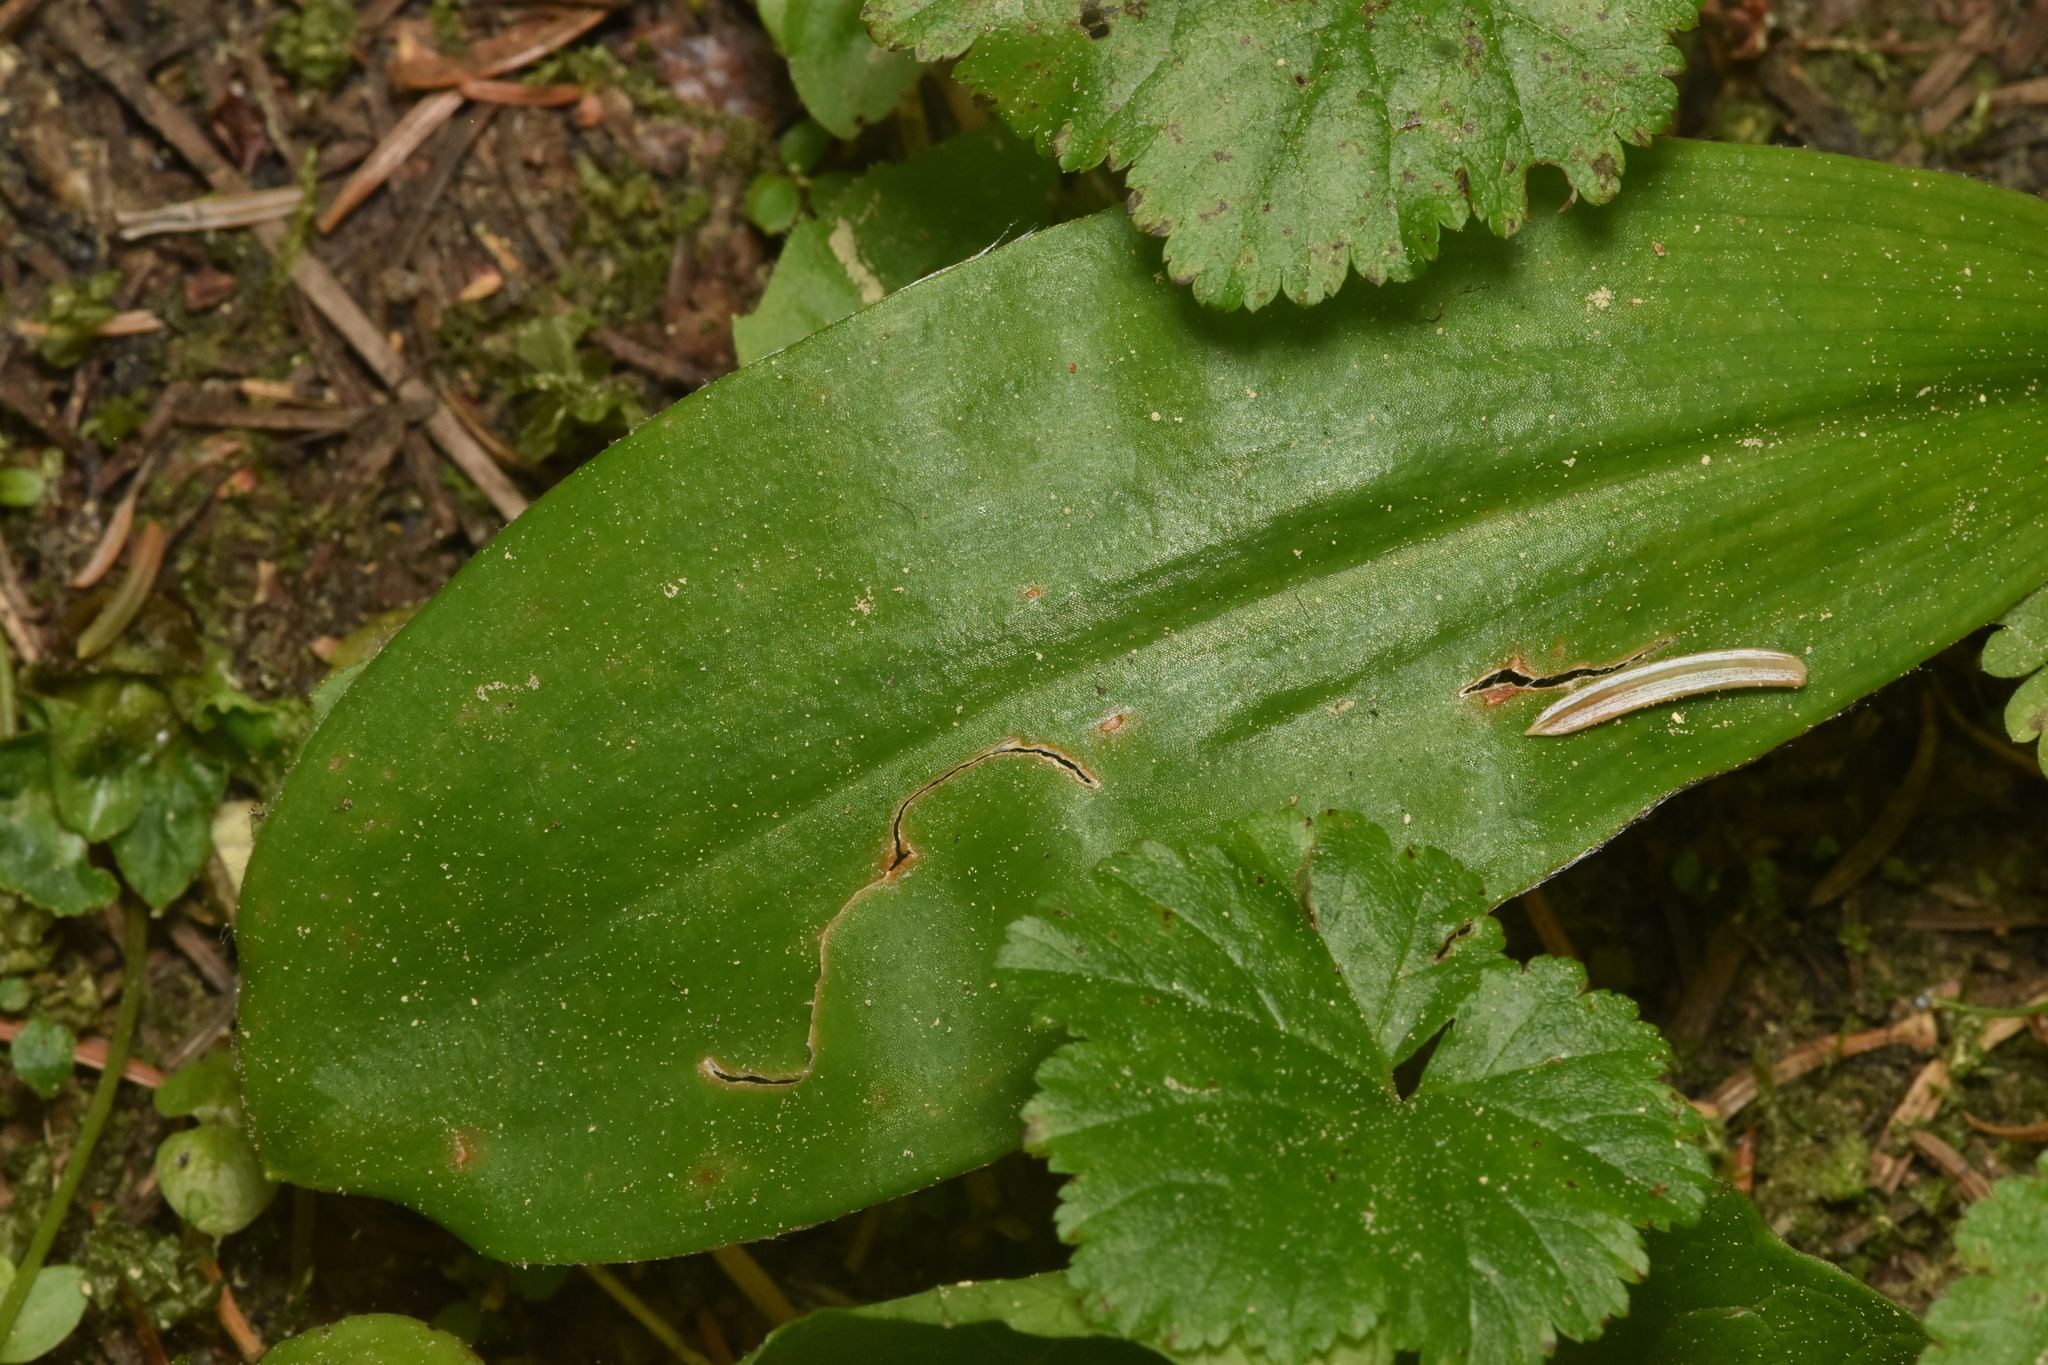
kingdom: Plantae
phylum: Tracheophyta
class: Liliopsida
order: Liliales
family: Liliaceae
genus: Clintonia
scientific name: Clintonia uniflora
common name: Queen's cup
